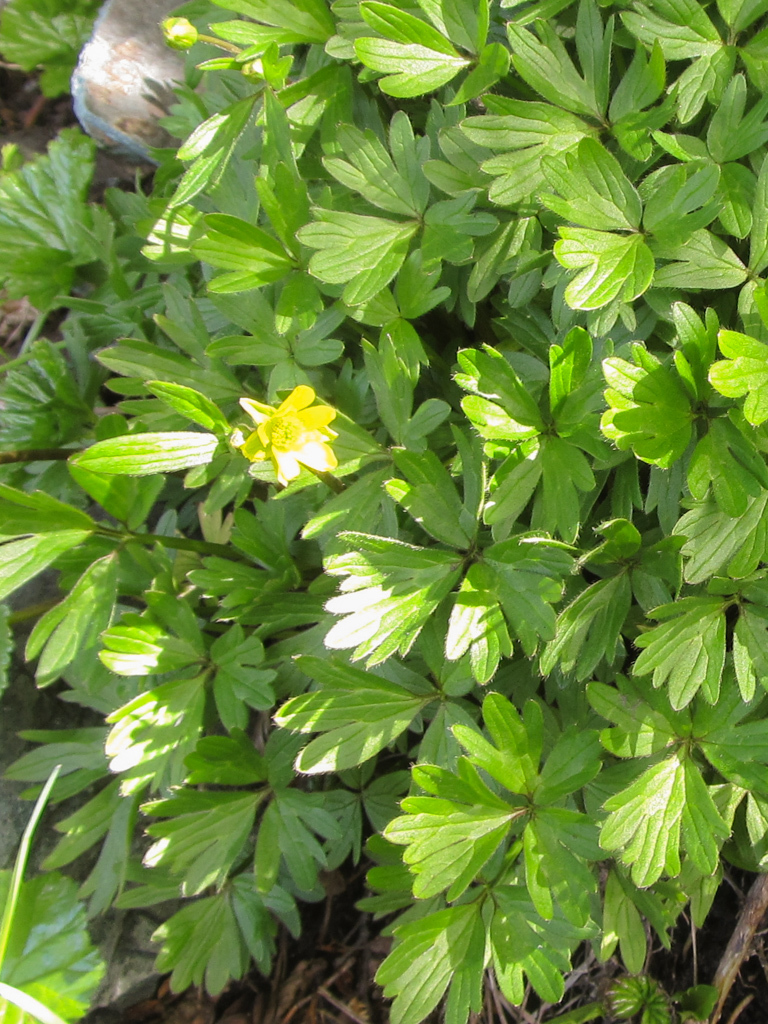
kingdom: Plantae
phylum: Tracheophyta
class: Magnoliopsida
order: Ranunculales
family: Ranunculaceae
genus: Ranunculus
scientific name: Ranunculus peduncularis
